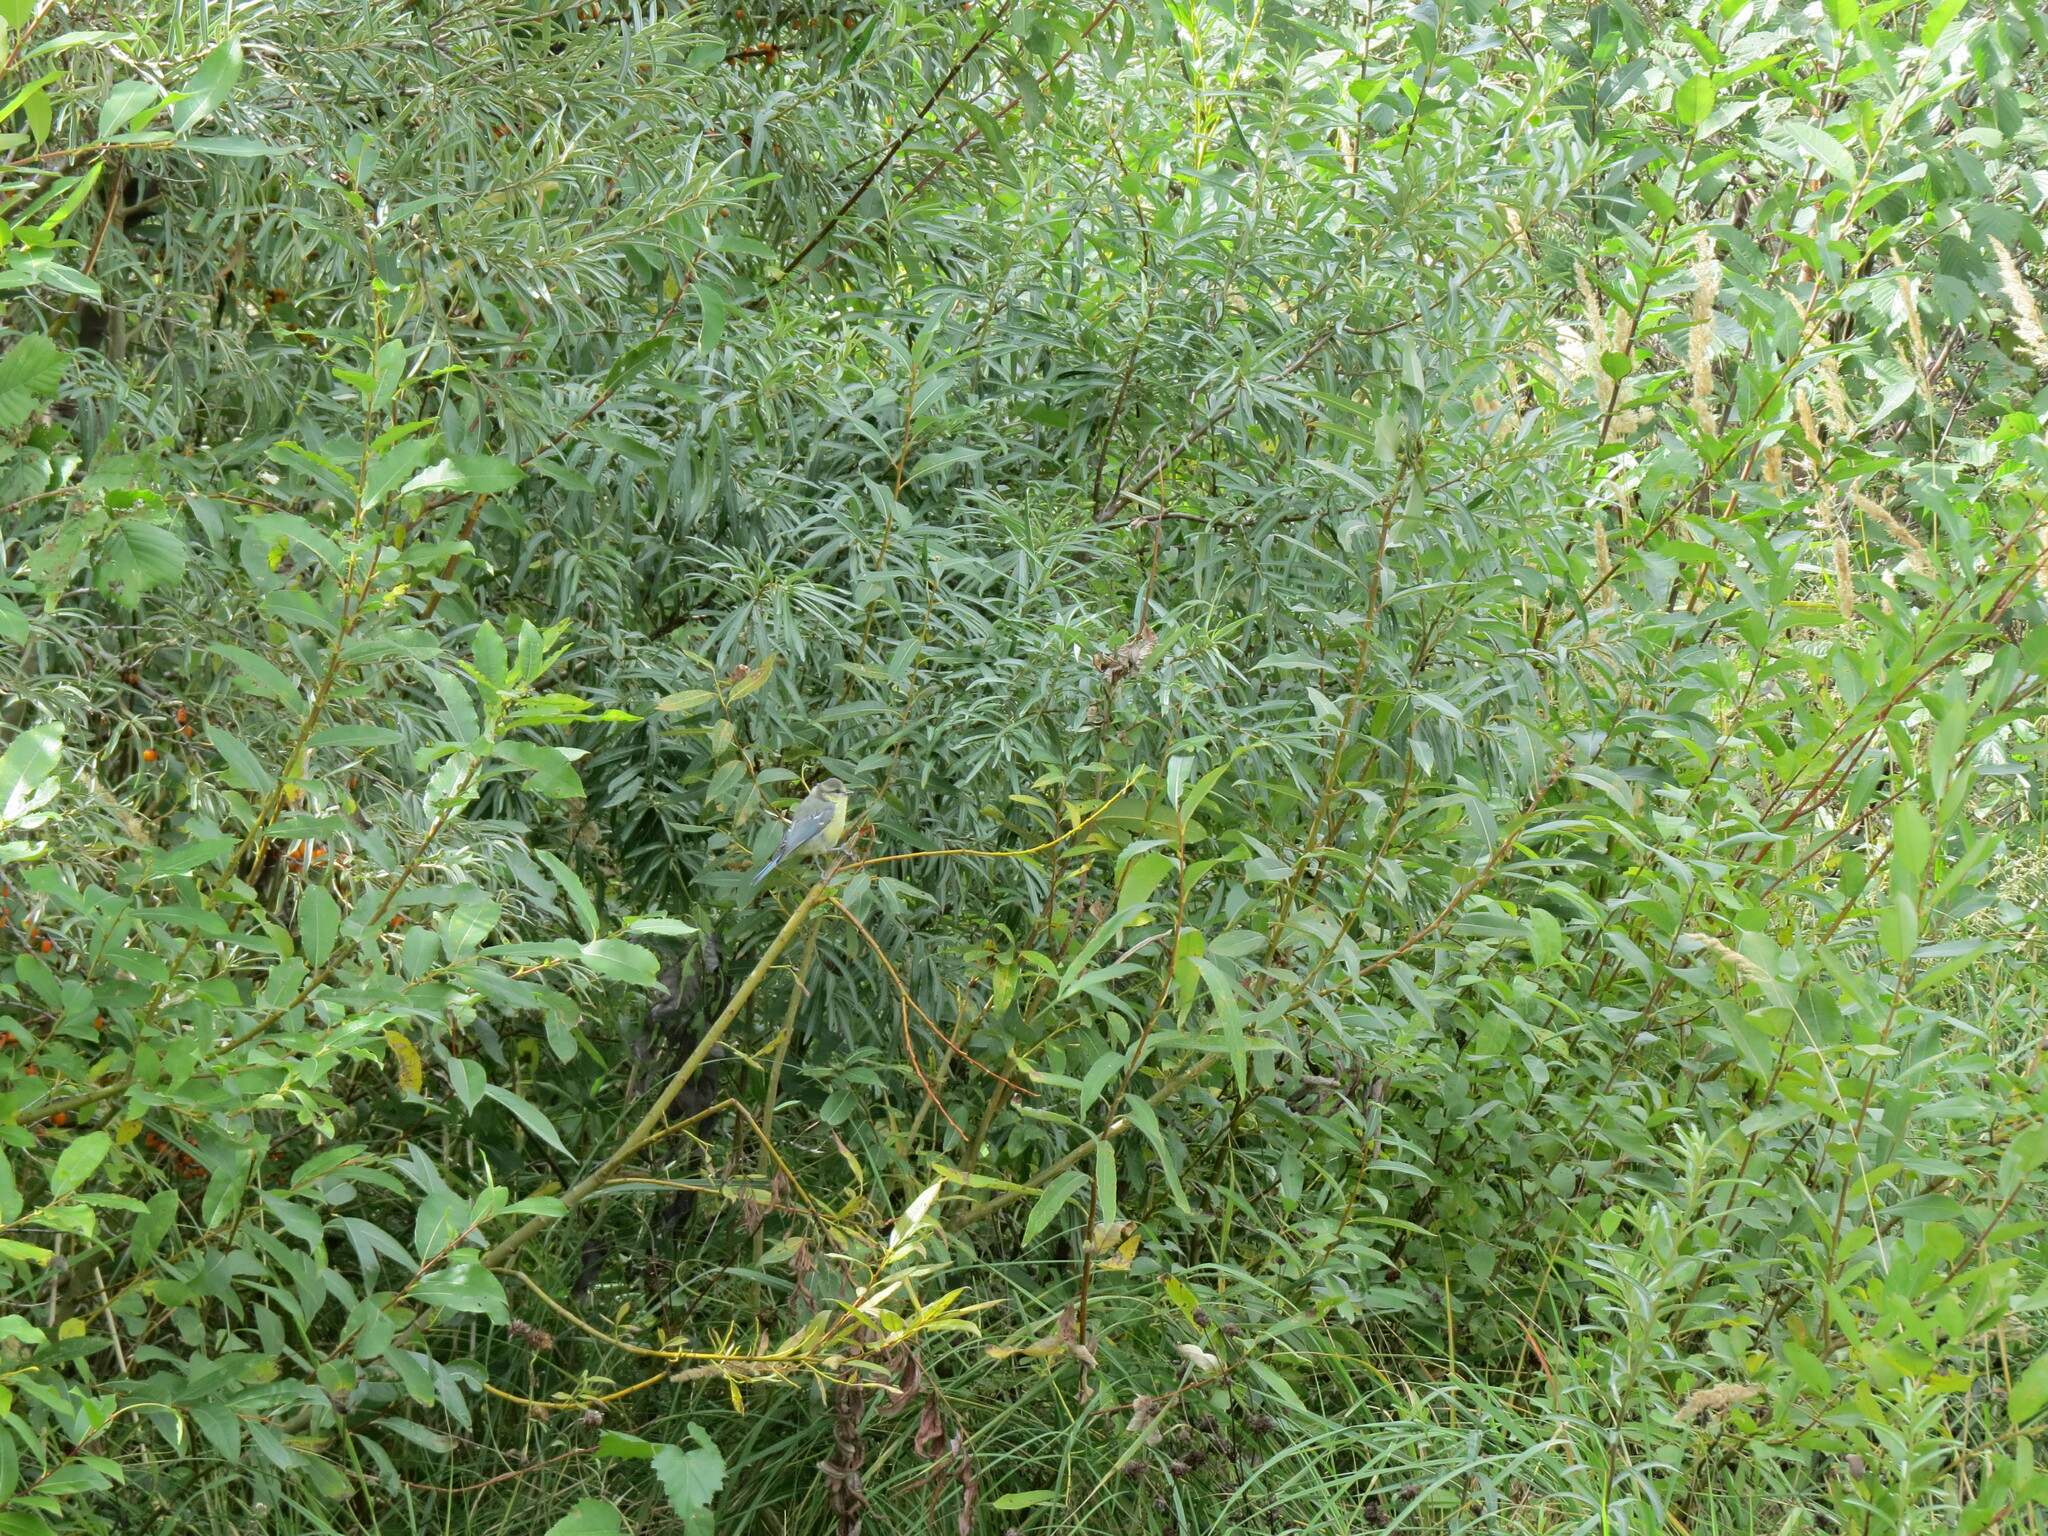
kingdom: Animalia
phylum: Chordata
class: Aves
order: Passeriformes
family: Paridae
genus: Cyanistes
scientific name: Cyanistes caeruleus
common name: Eurasian blue tit
